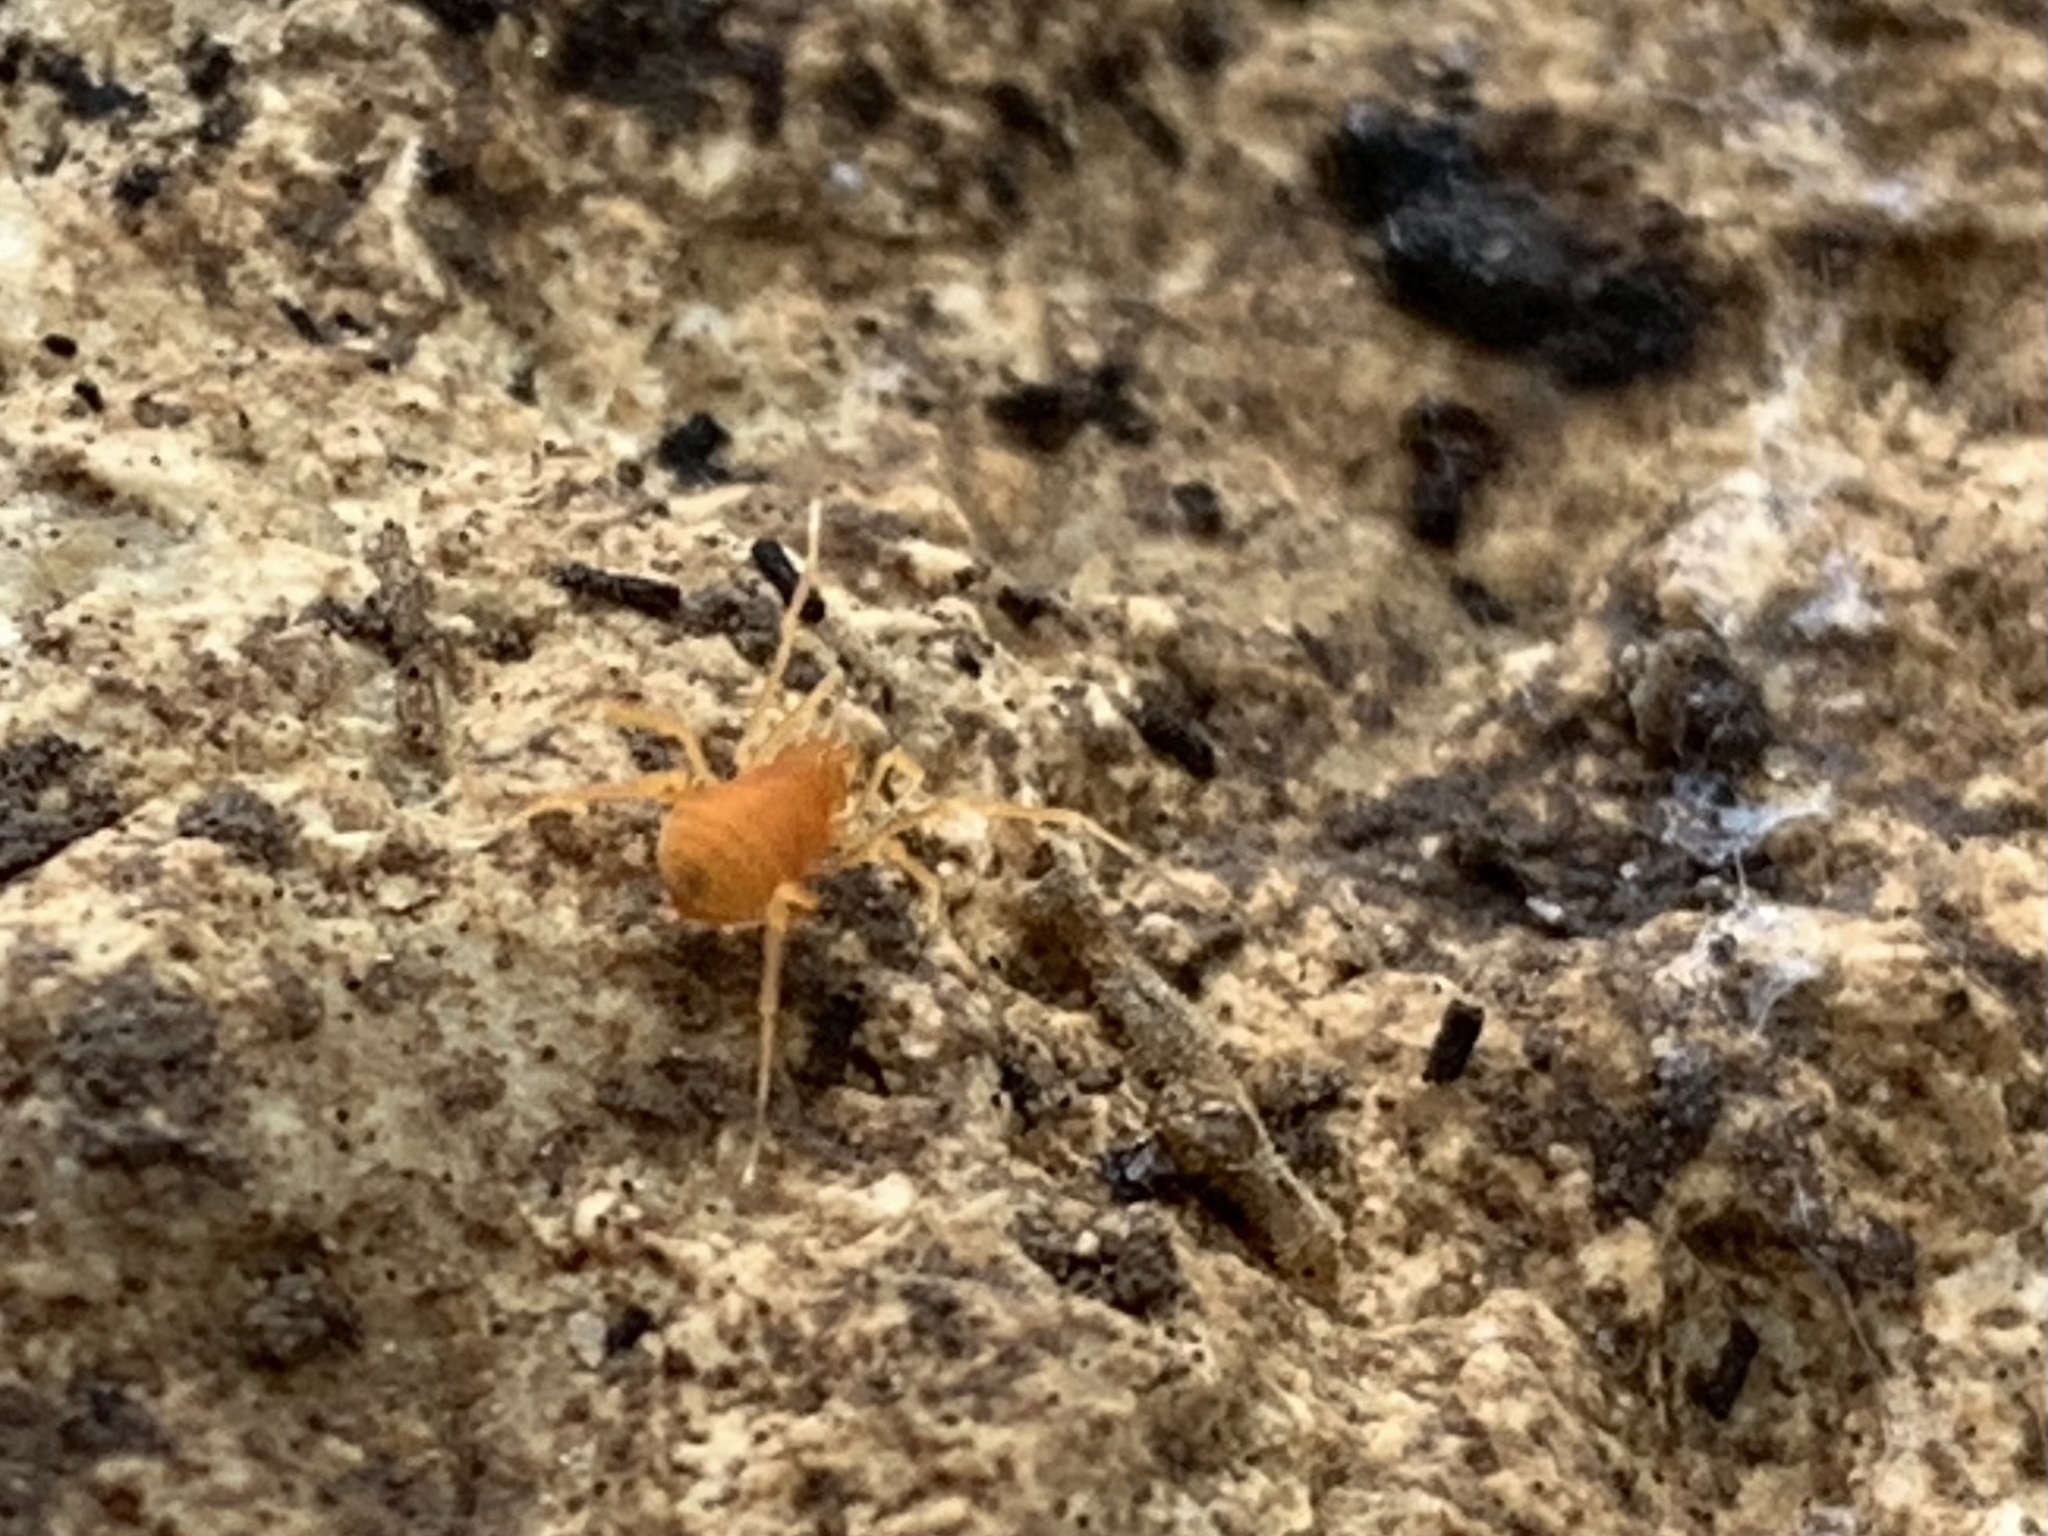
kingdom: Animalia
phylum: Arthropoda
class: Arachnida
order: Opiliones
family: Phalangodidae
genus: Scotolemon
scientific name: Scotolemon doriae
